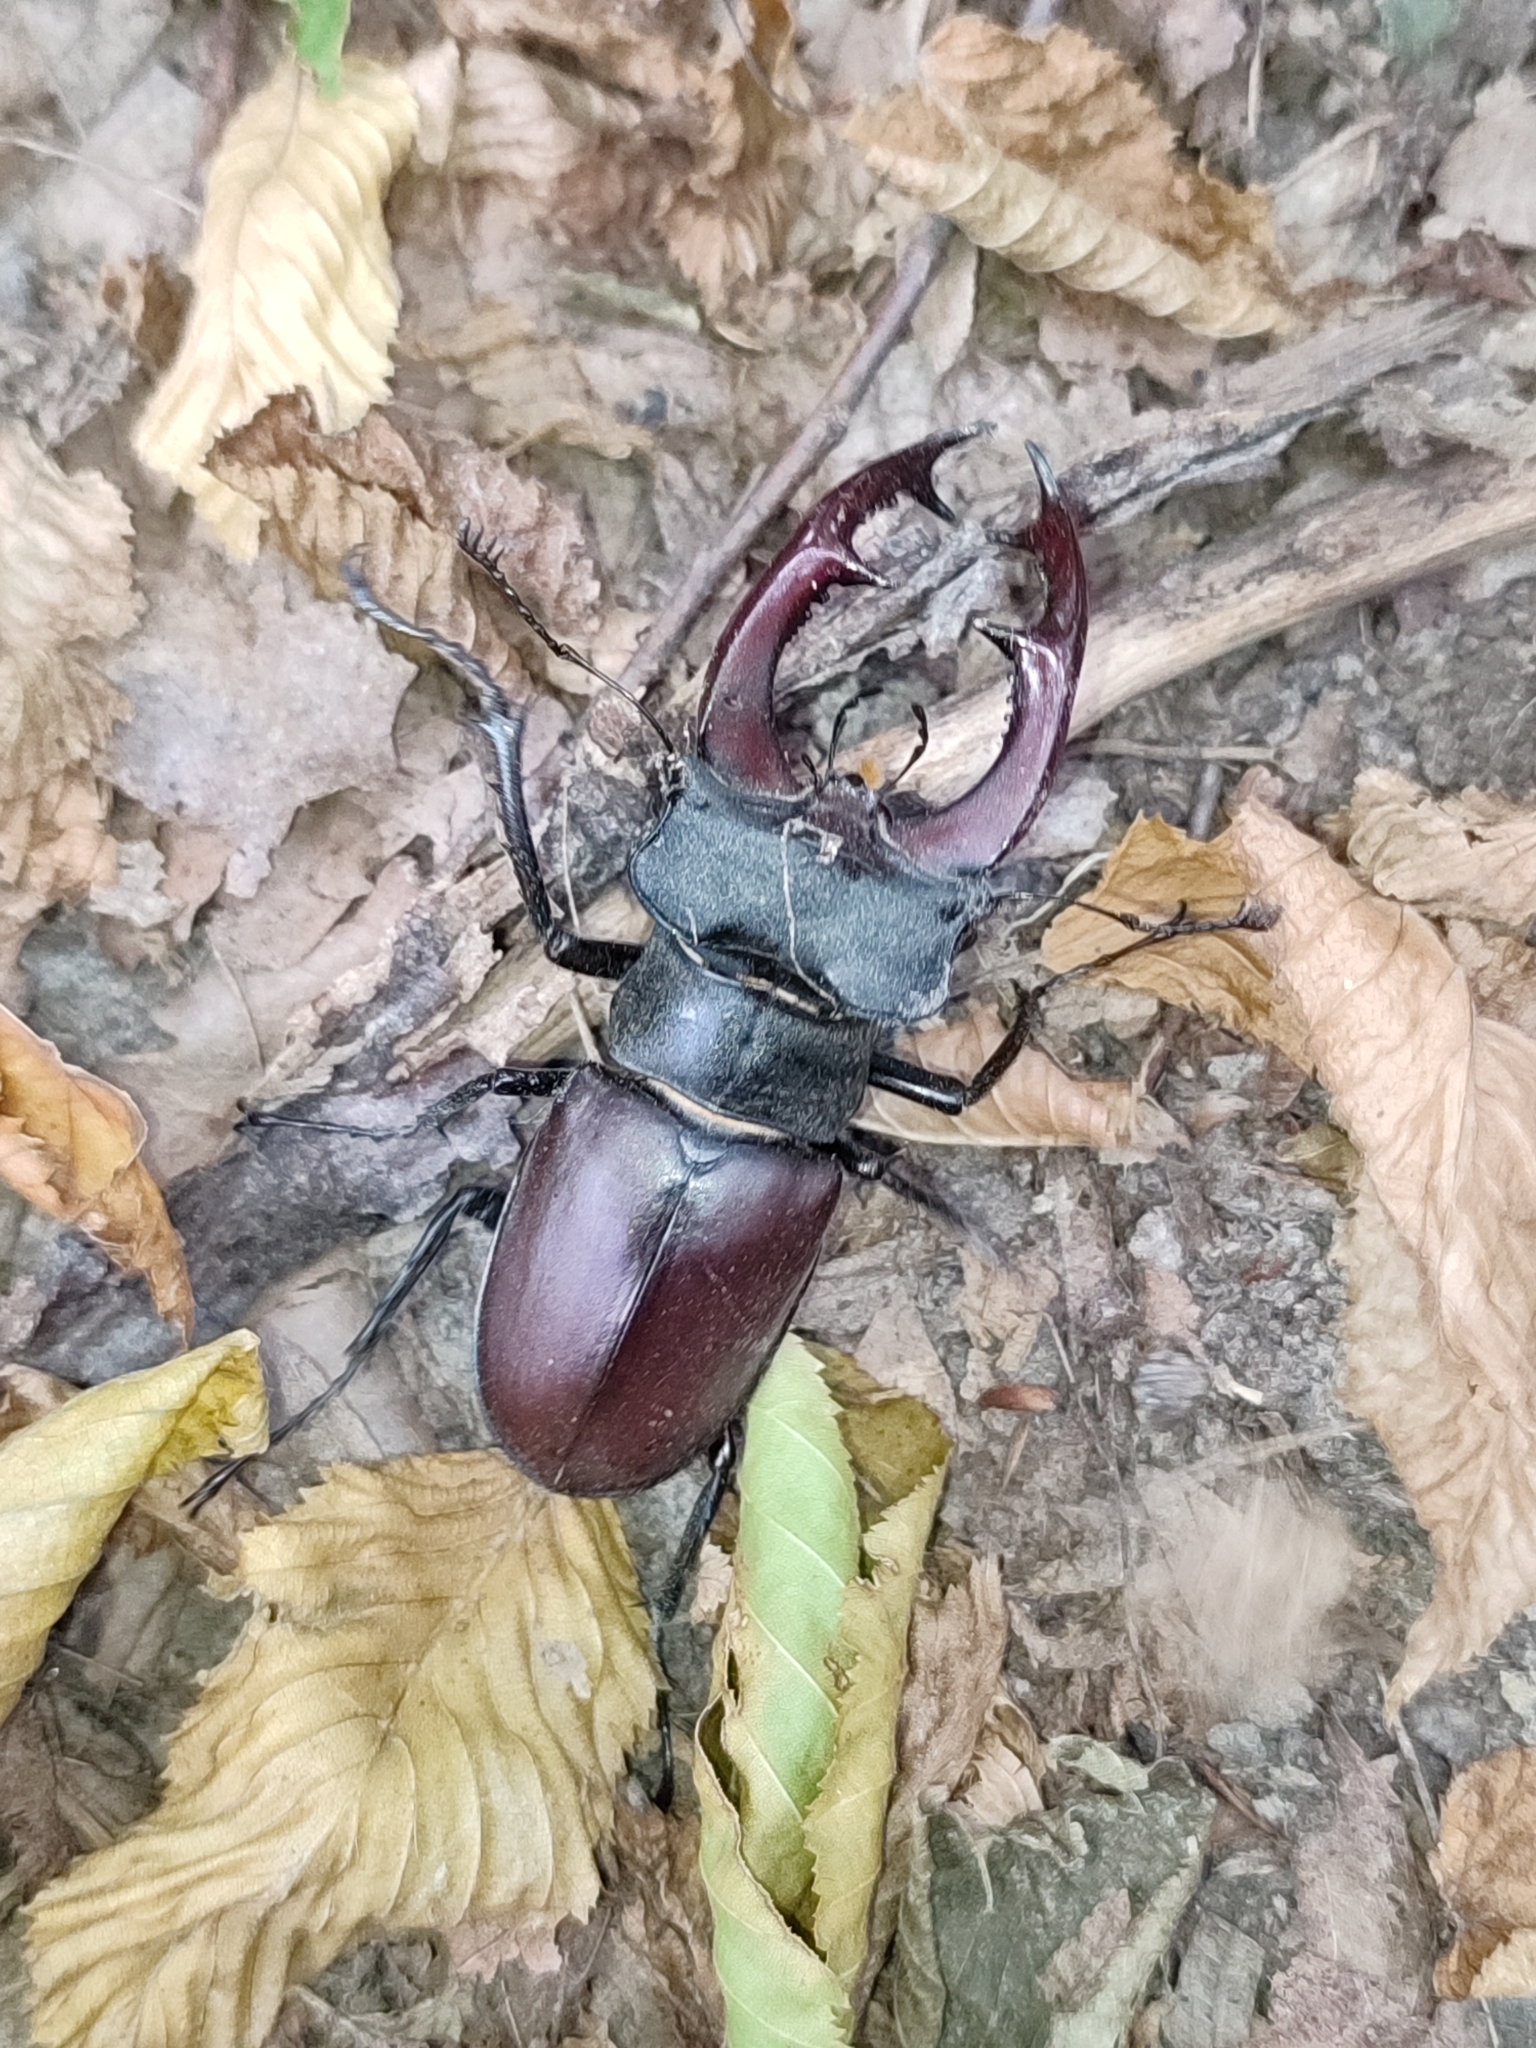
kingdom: Animalia
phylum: Arthropoda
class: Insecta
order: Coleoptera
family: Lucanidae
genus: Lucanus
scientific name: Lucanus cervus
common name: Stag beetle
